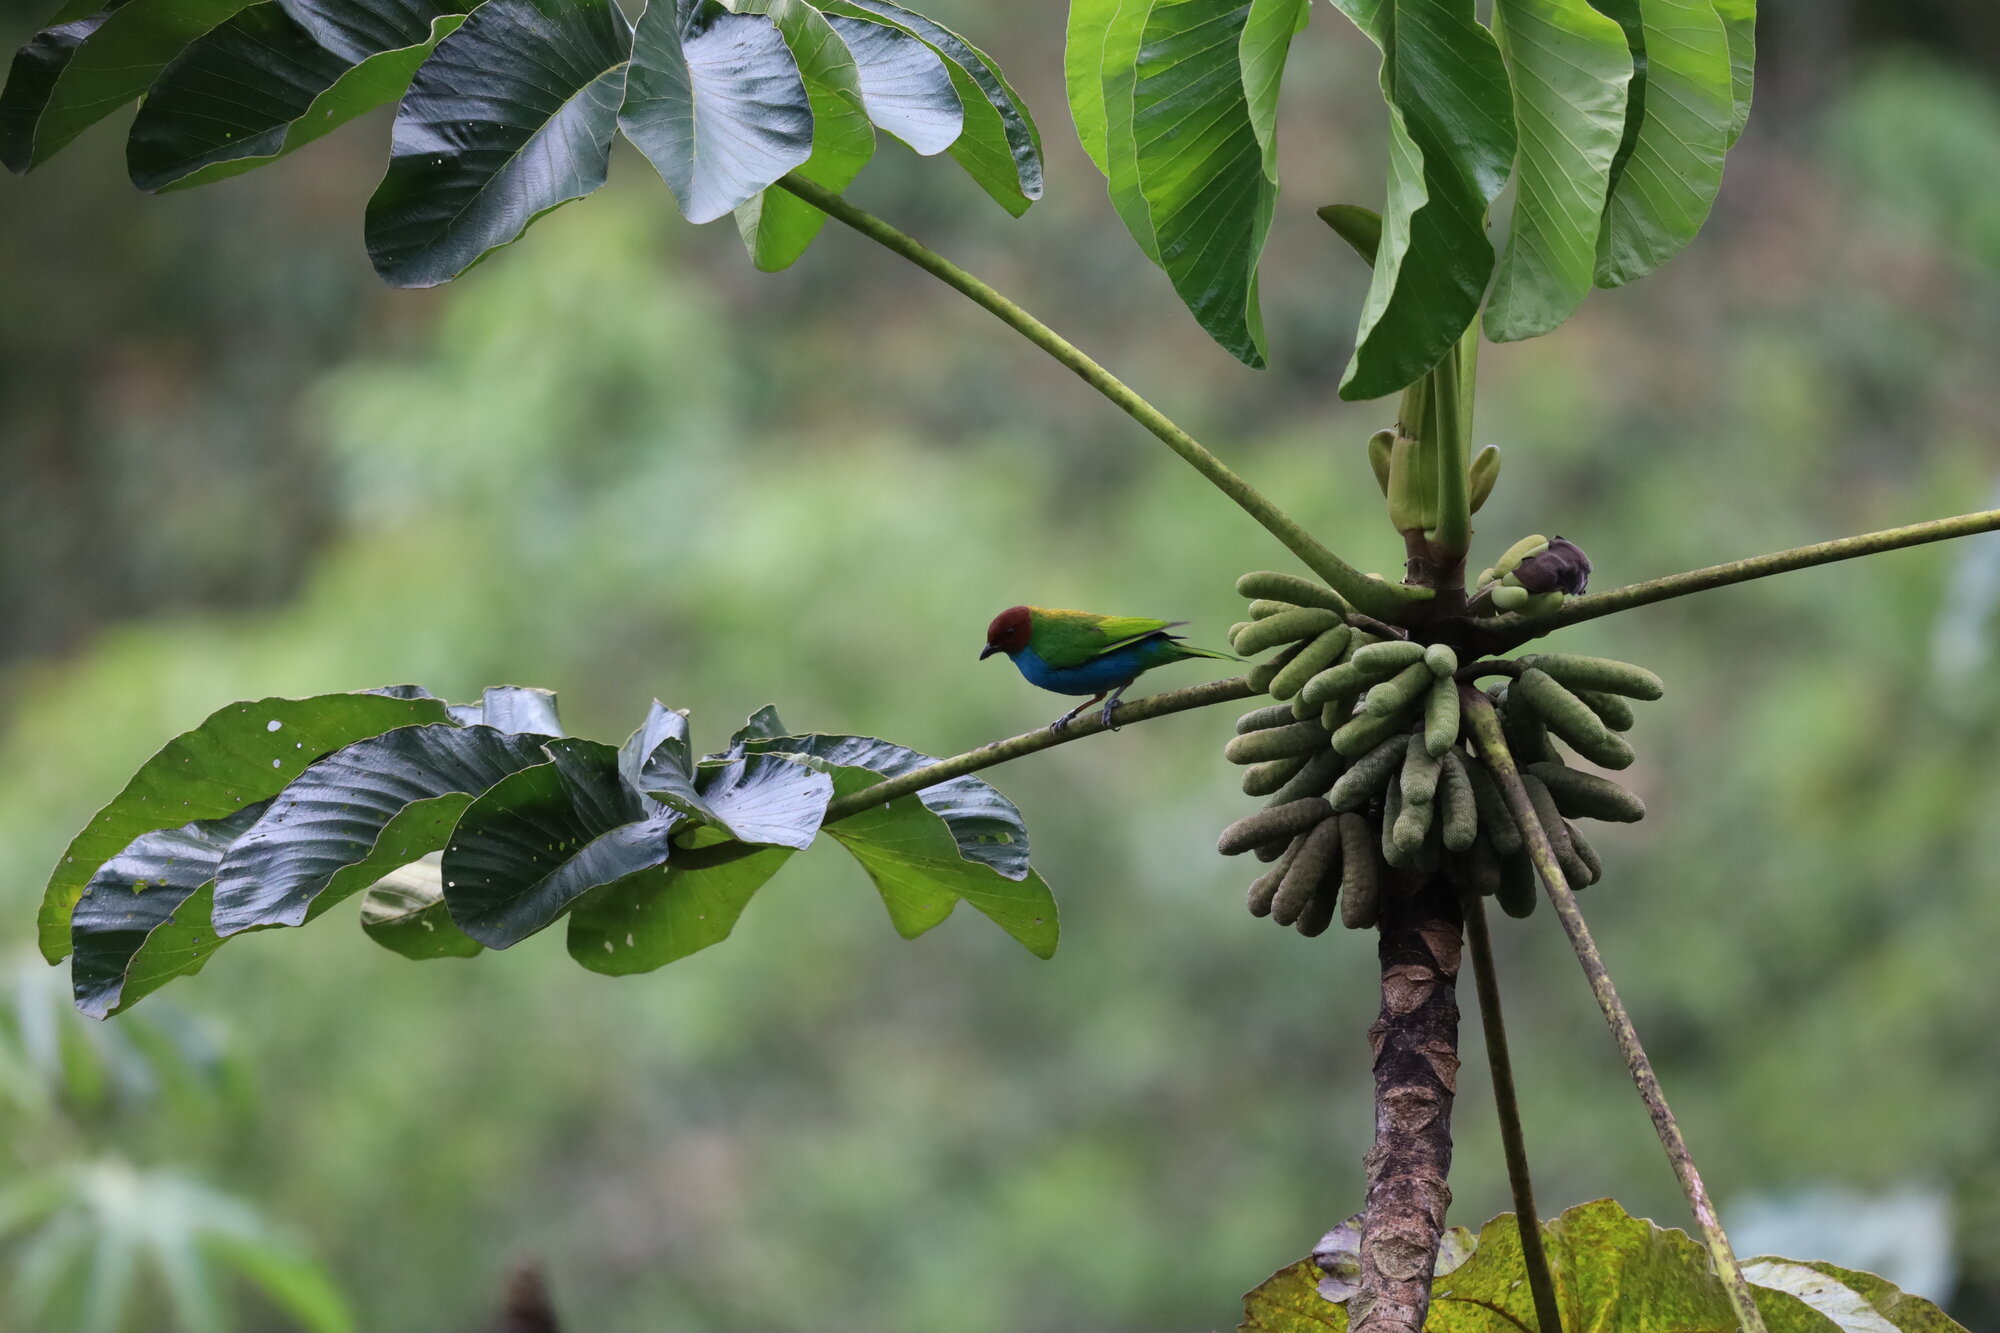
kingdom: Animalia
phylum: Chordata
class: Aves
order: Passeriformes
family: Thraupidae
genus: Tangara
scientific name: Tangara gyrola
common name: Bay-headed tanager
